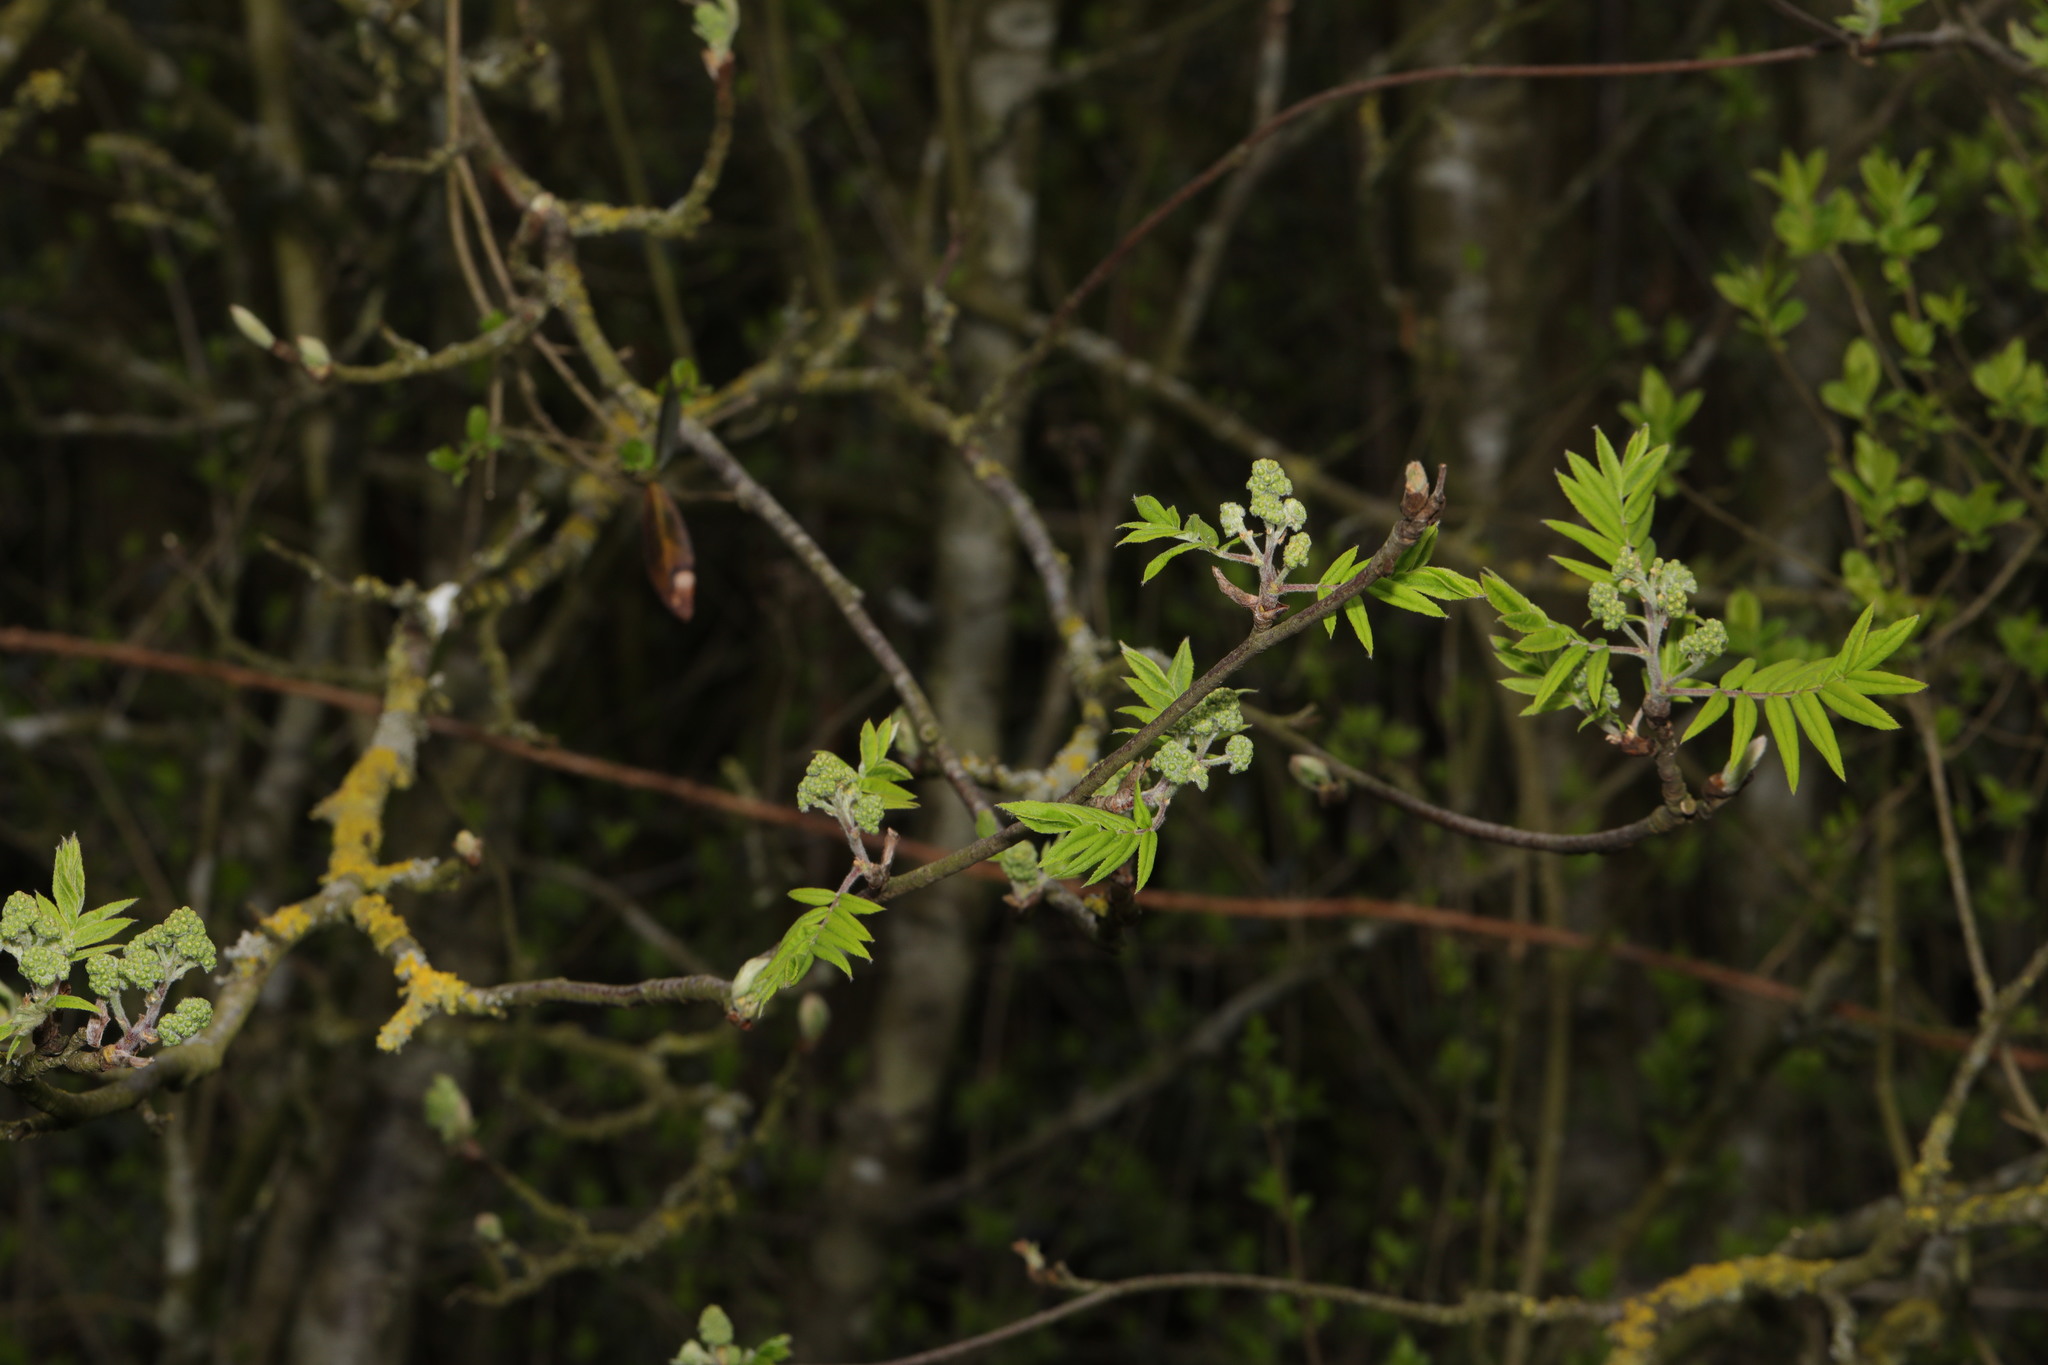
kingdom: Plantae
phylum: Tracheophyta
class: Magnoliopsida
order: Rosales
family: Rosaceae
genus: Sorbus
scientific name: Sorbus aucuparia
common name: Rowan
